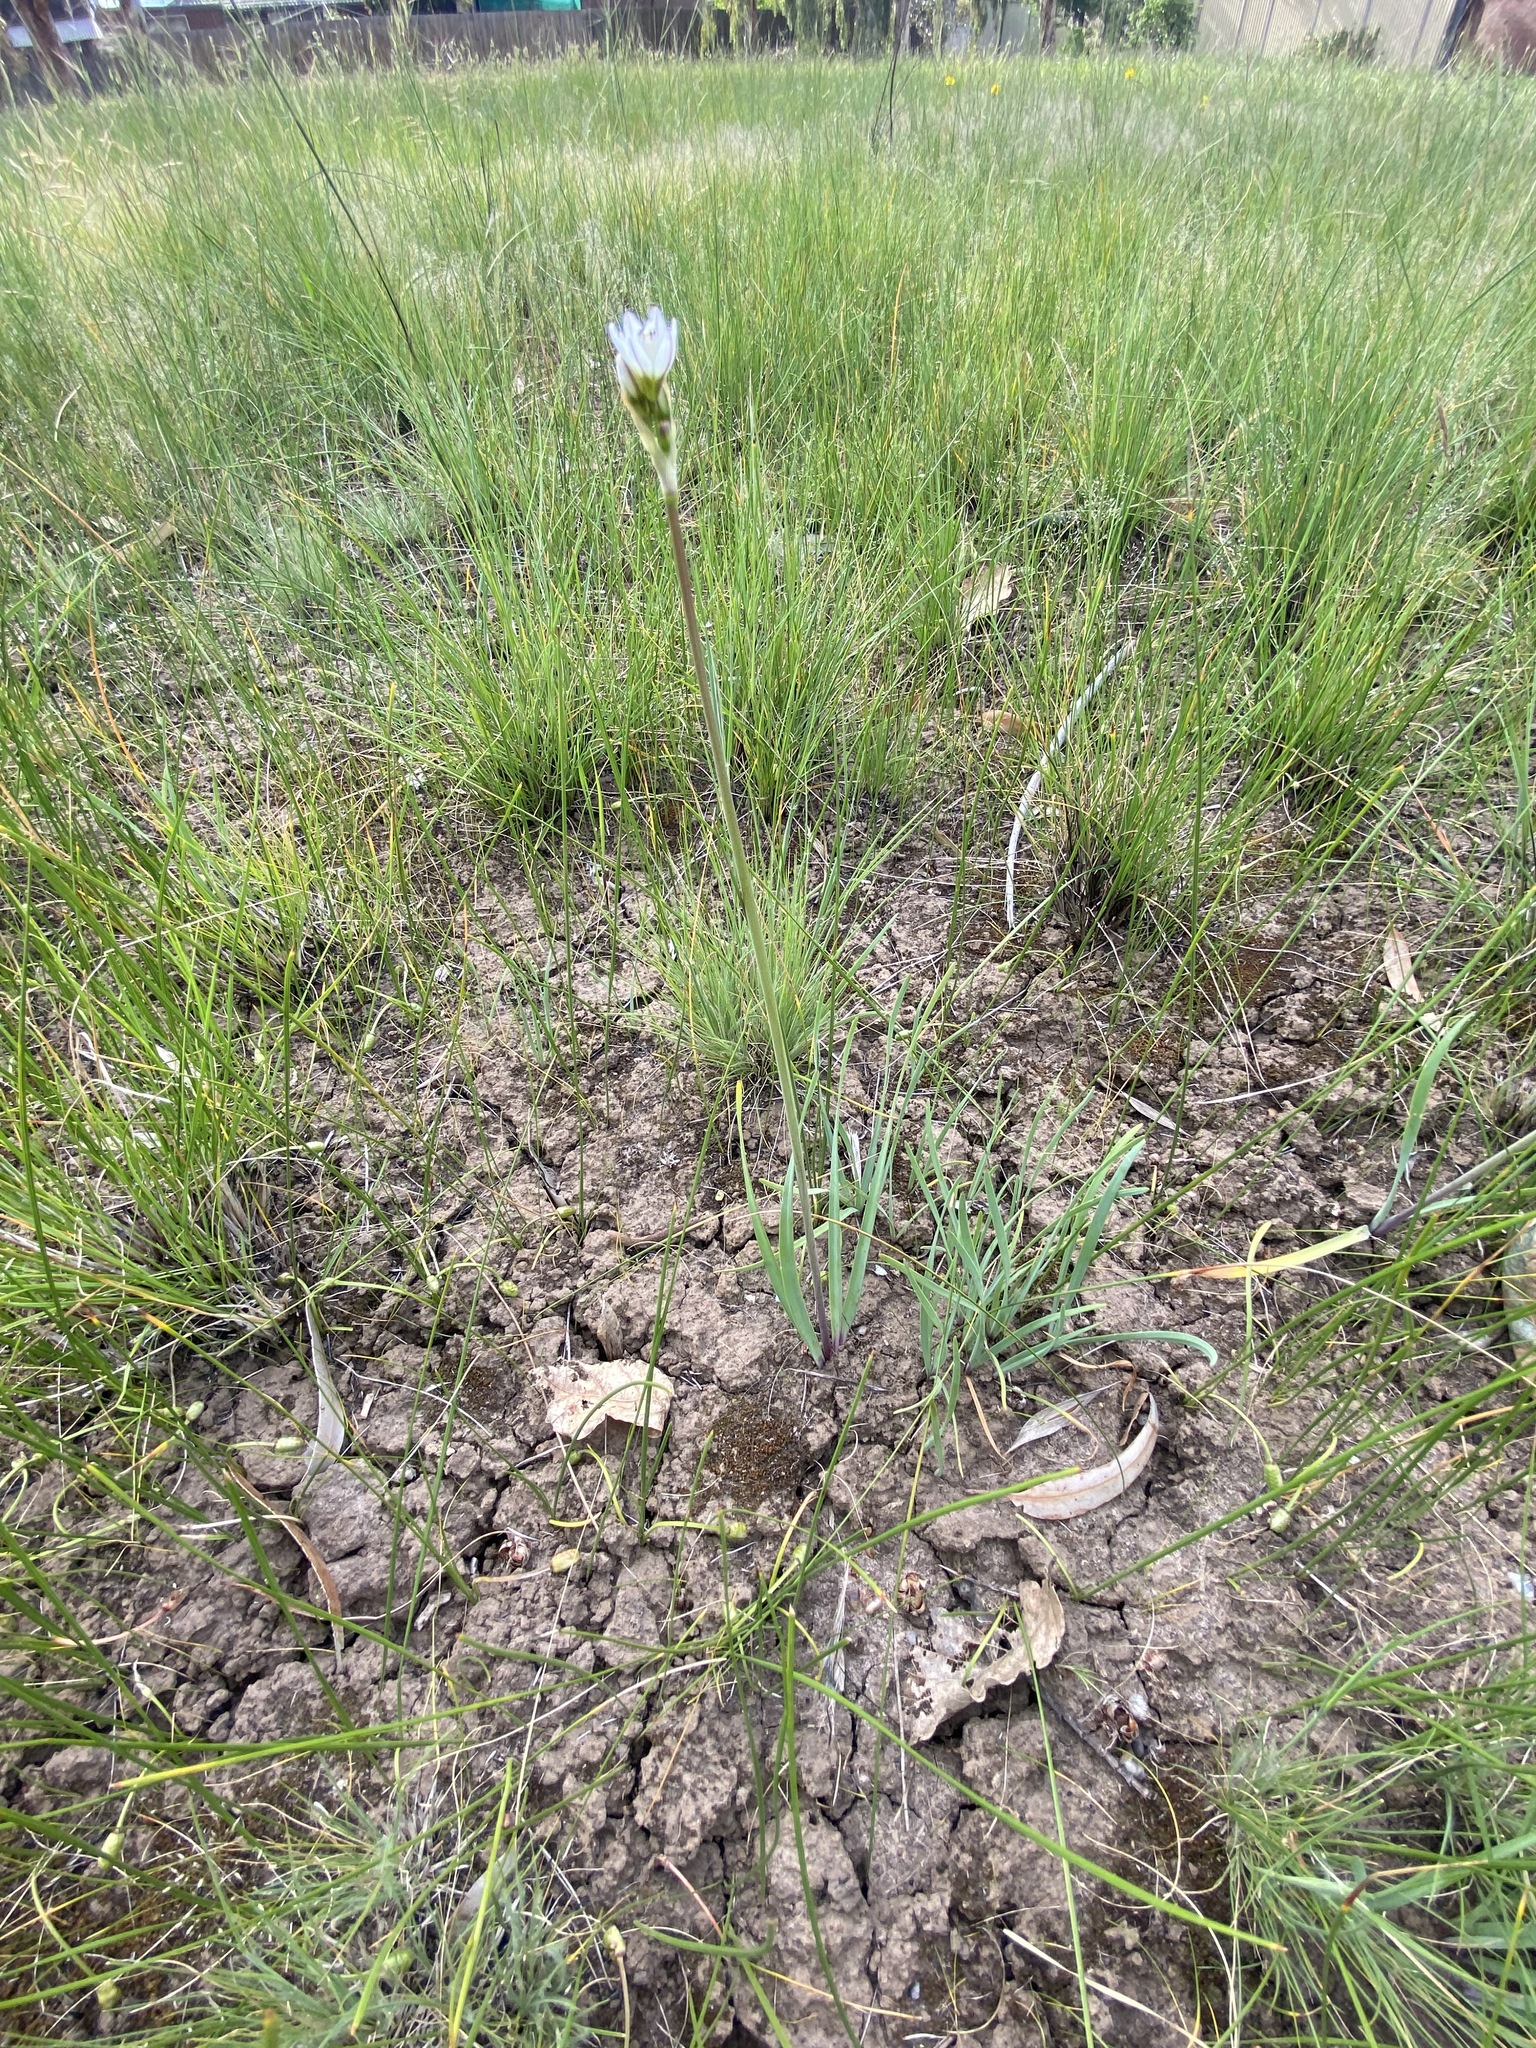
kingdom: Plantae
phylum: Tracheophyta
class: Liliopsida
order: Asparagales
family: Amaryllidaceae
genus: Nothoscordum
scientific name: Nothoscordum borbonicum
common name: Honeybells
